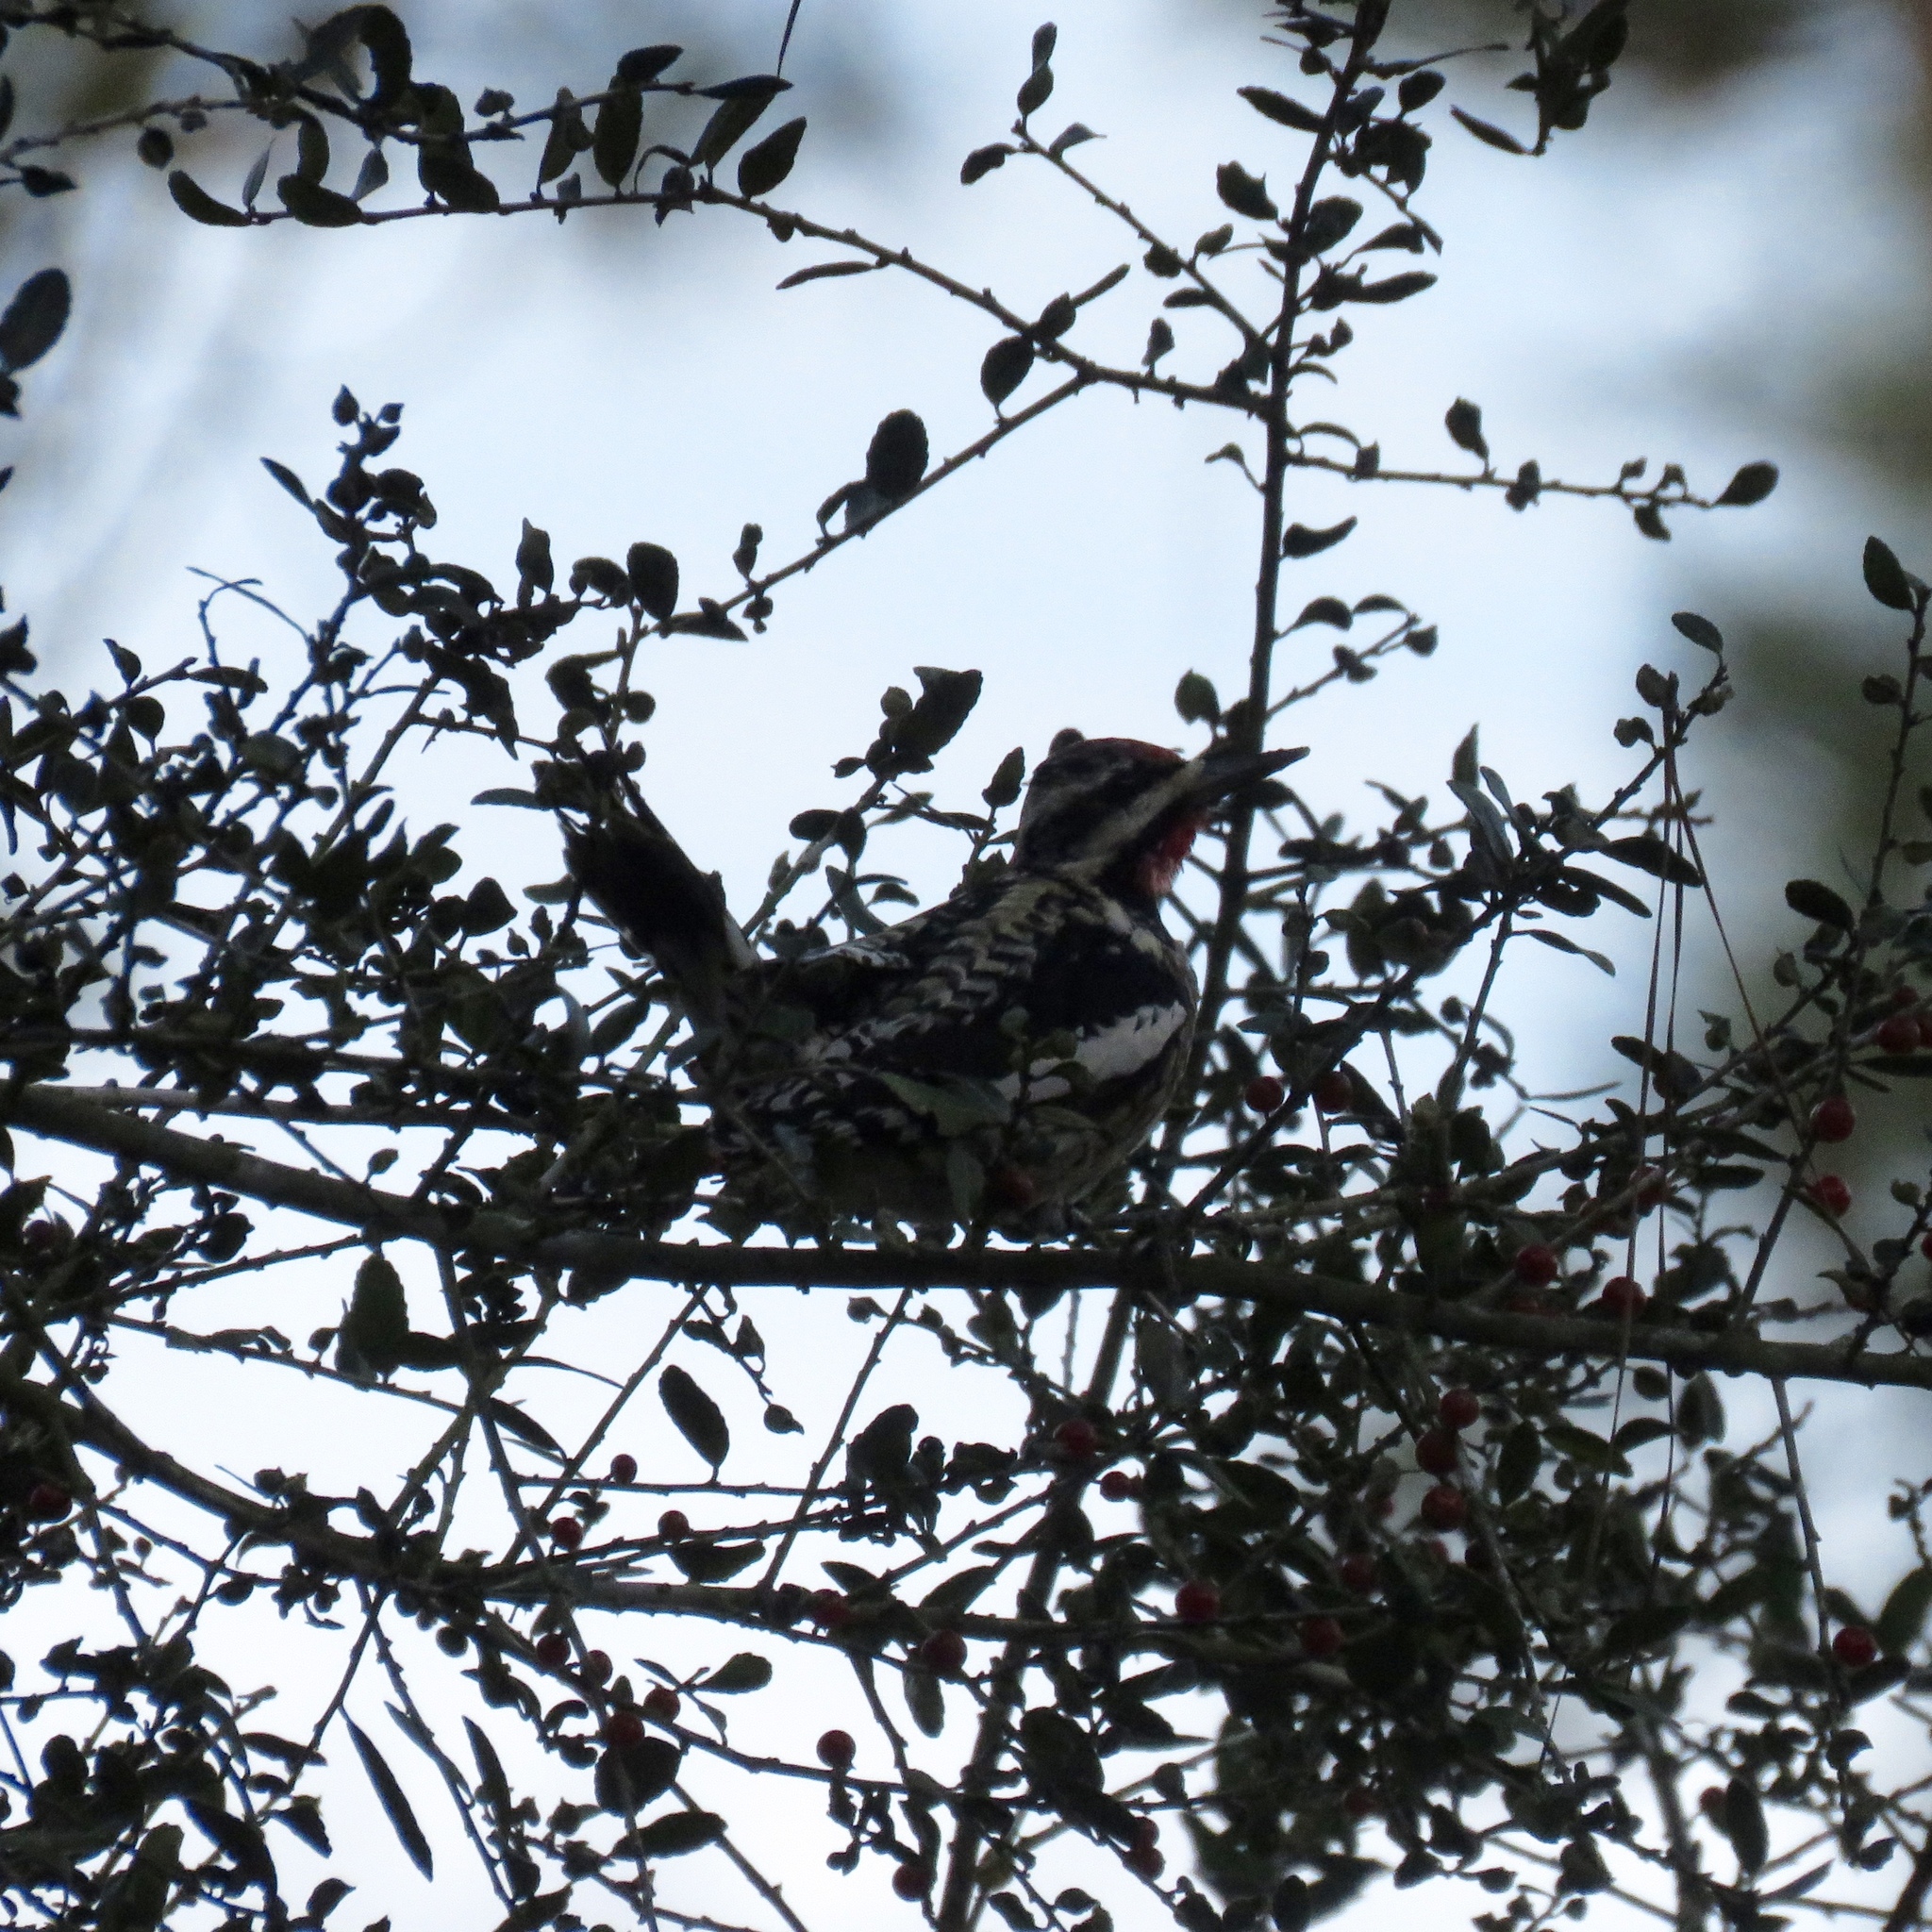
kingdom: Animalia
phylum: Chordata
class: Aves
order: Piciformes
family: Picidae
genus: Sphyrapicus
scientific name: Sphyrapicus varius
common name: Yellow-bellied sapsucker
